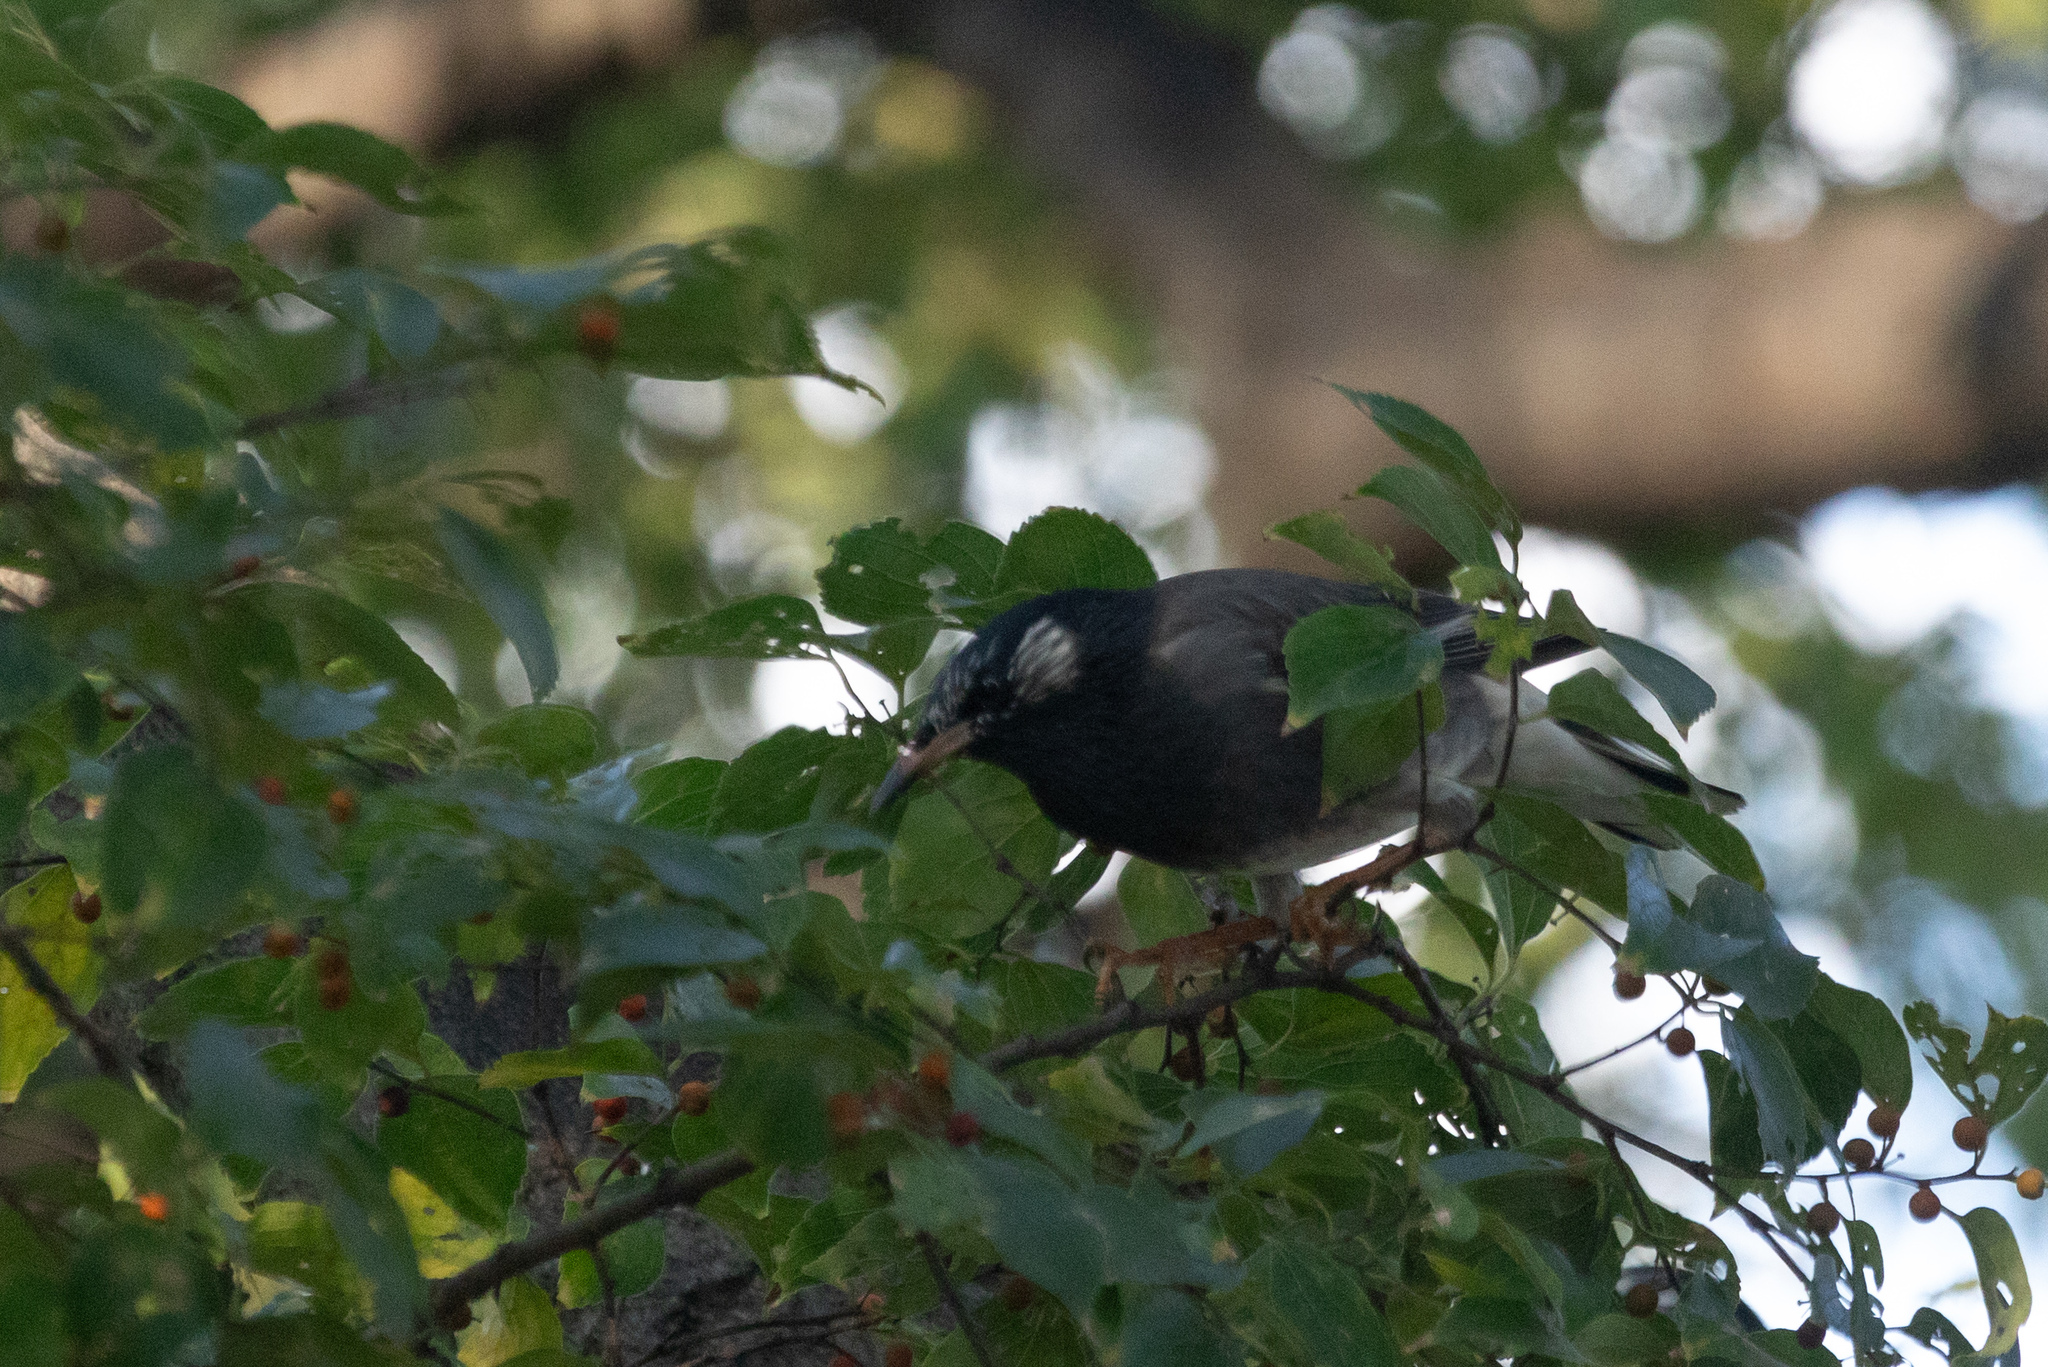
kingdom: Animalia
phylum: Chordata
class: Aves
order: Passeriformes
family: Sturnidae
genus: Spodiopsar
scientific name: Spodiopsar cineraceus
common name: White-cheeked starling
